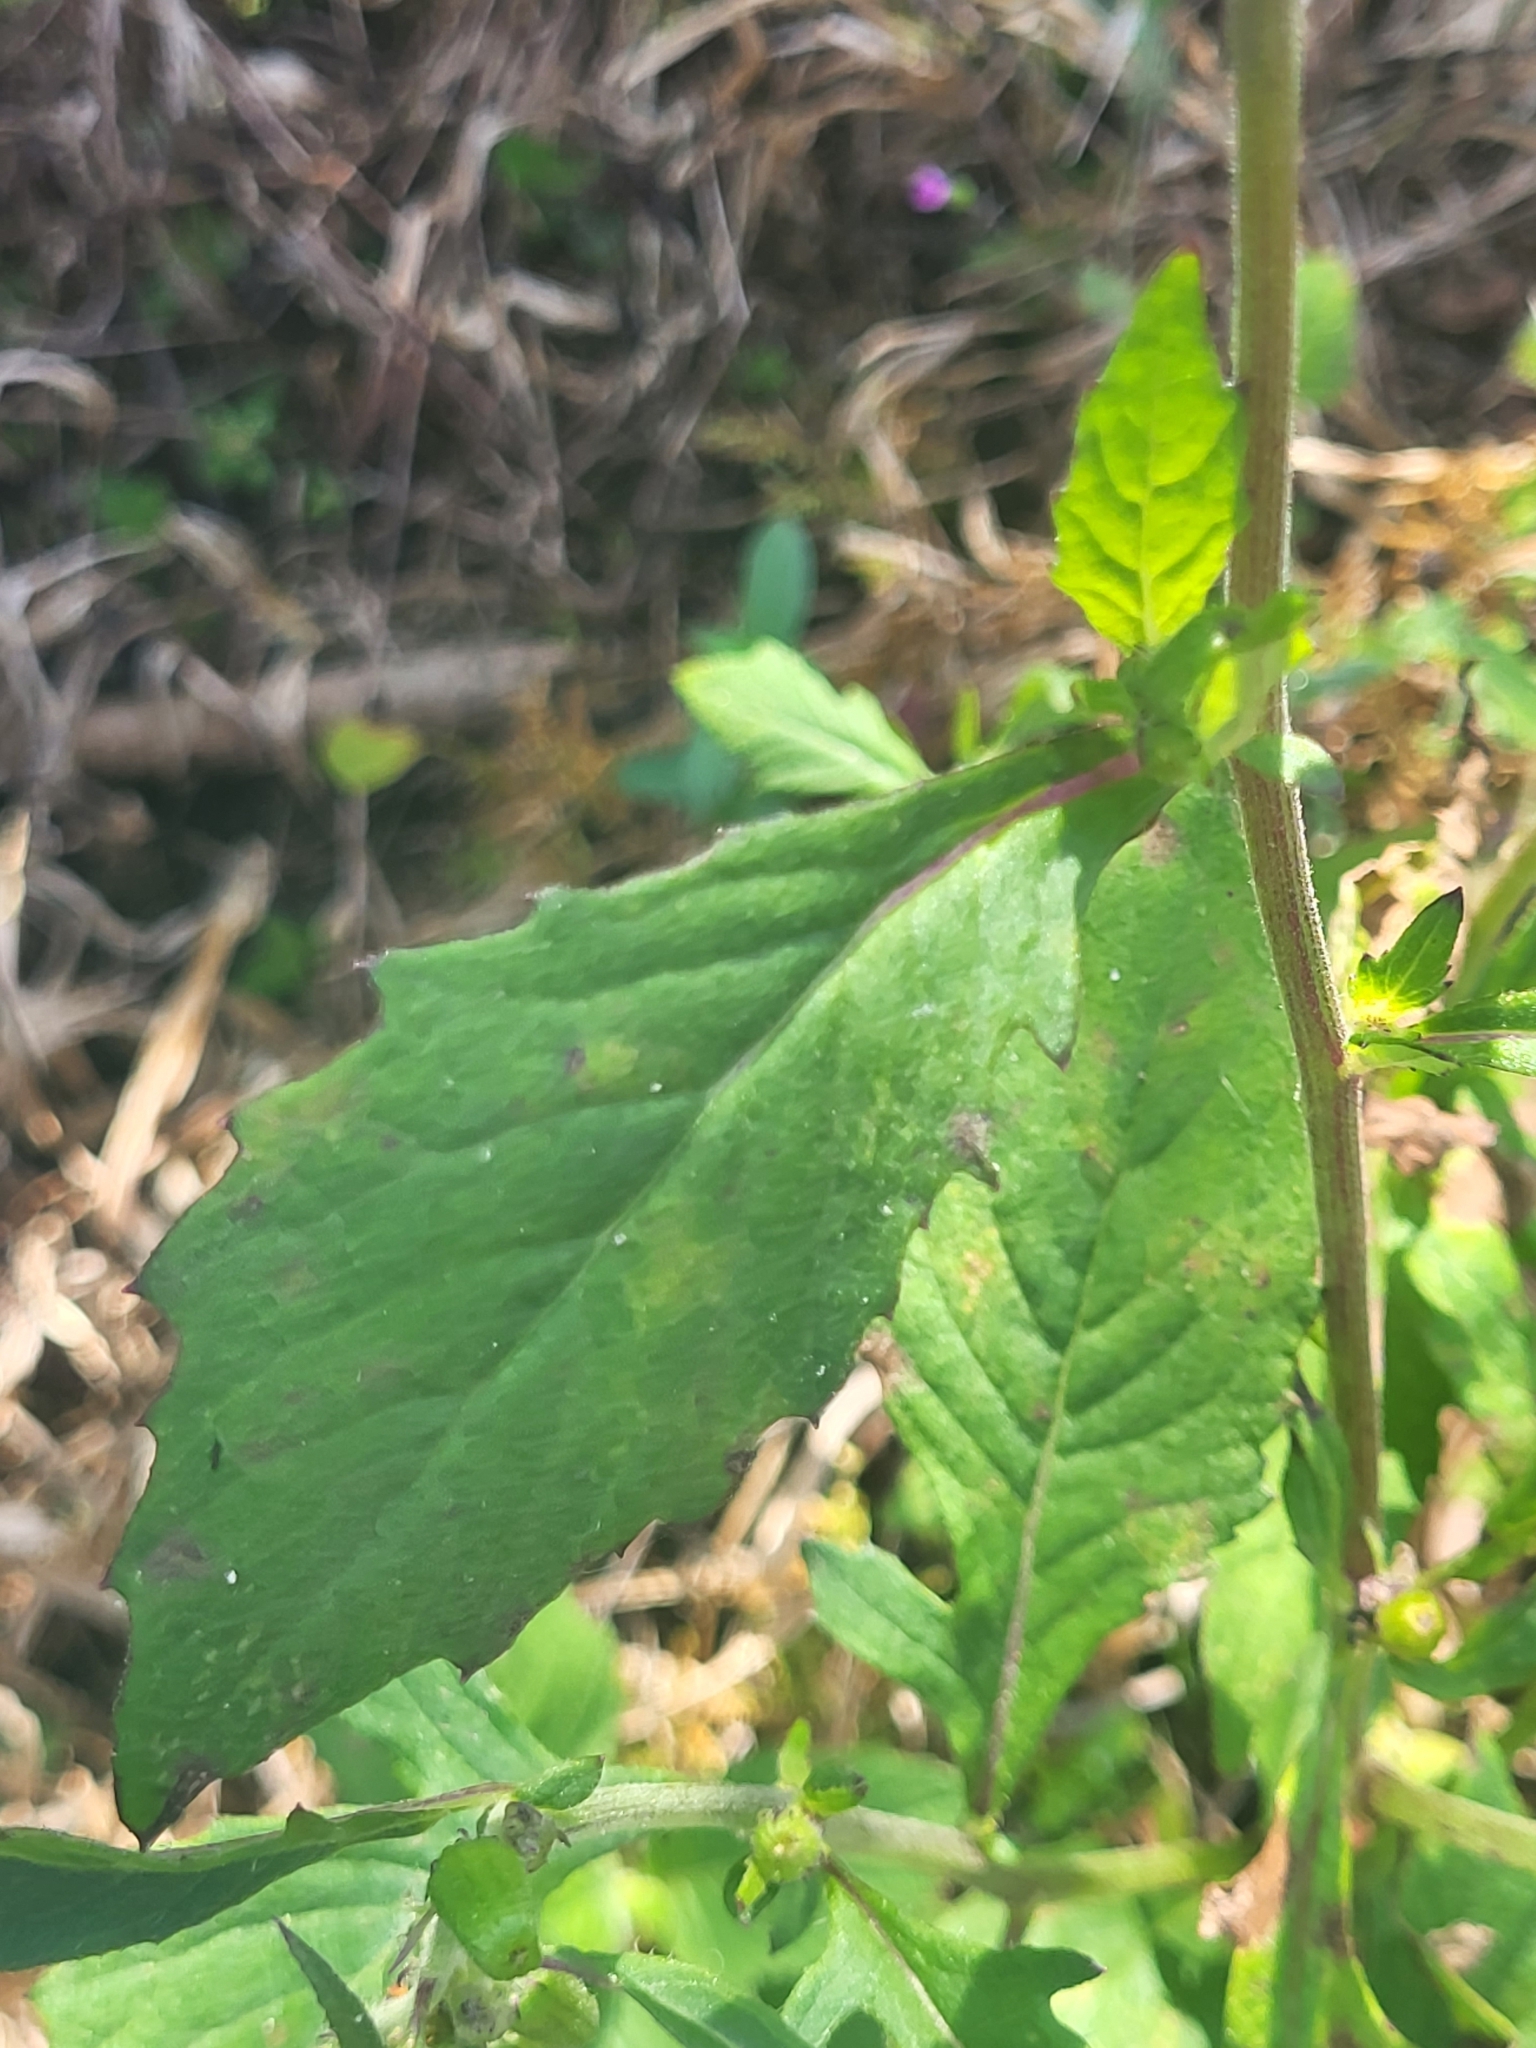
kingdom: Plantae
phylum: Tracheophyta
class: Magnoliopsida
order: Asterales
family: Asteraceae
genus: Crassocephalum
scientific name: Crassocephalum crepidioides
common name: Redflower ragleaf
